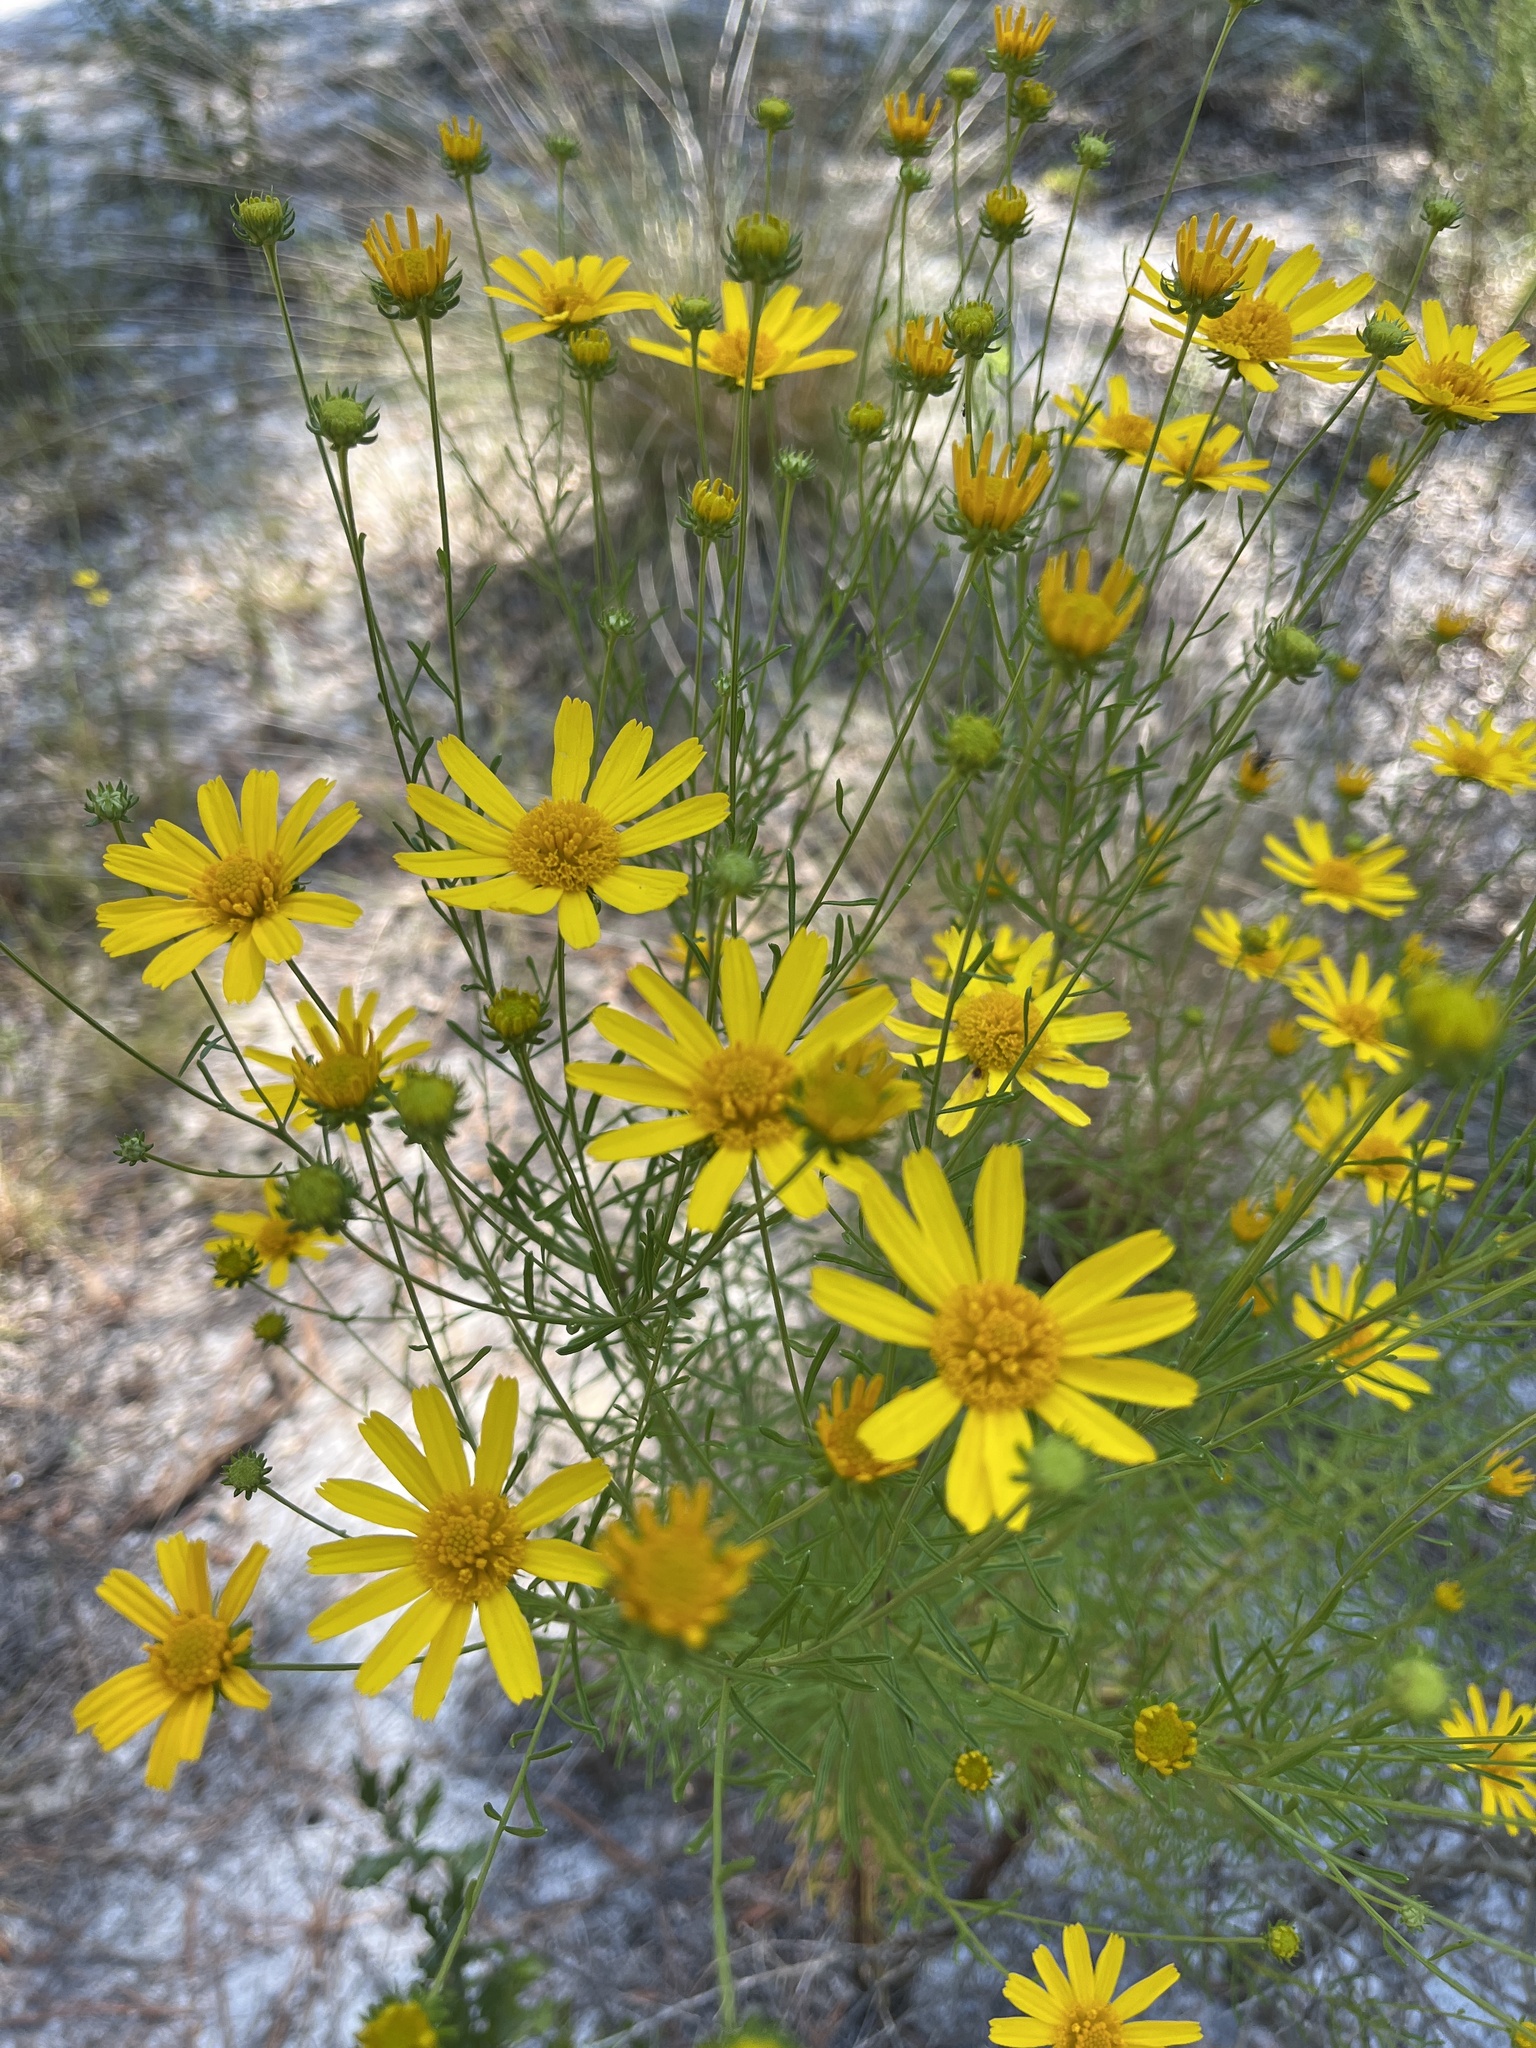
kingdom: Plantae
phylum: Tracheophyta
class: Magnoliopsida
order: Asterales
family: Asteraceae
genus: Balduina
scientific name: Balduina angustifolia
